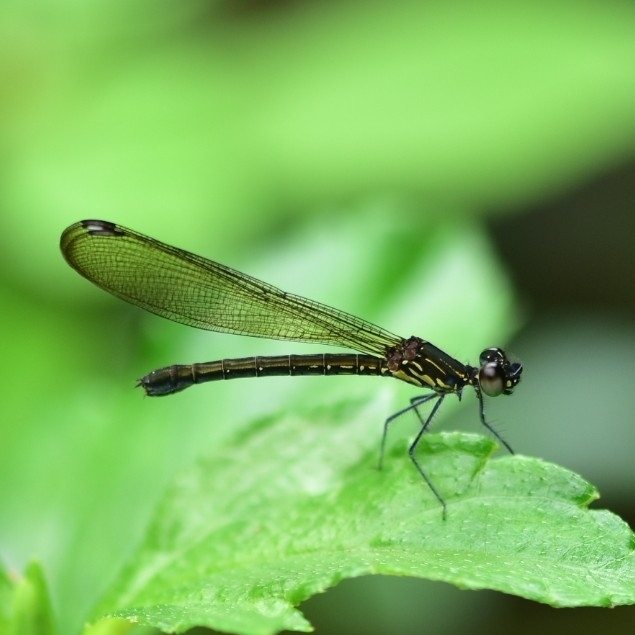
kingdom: Animalia
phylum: Arthropoda
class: Insecta
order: Odonata
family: Chlorocyphidae
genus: Heliocypha
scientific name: Heliocypha bisignata
